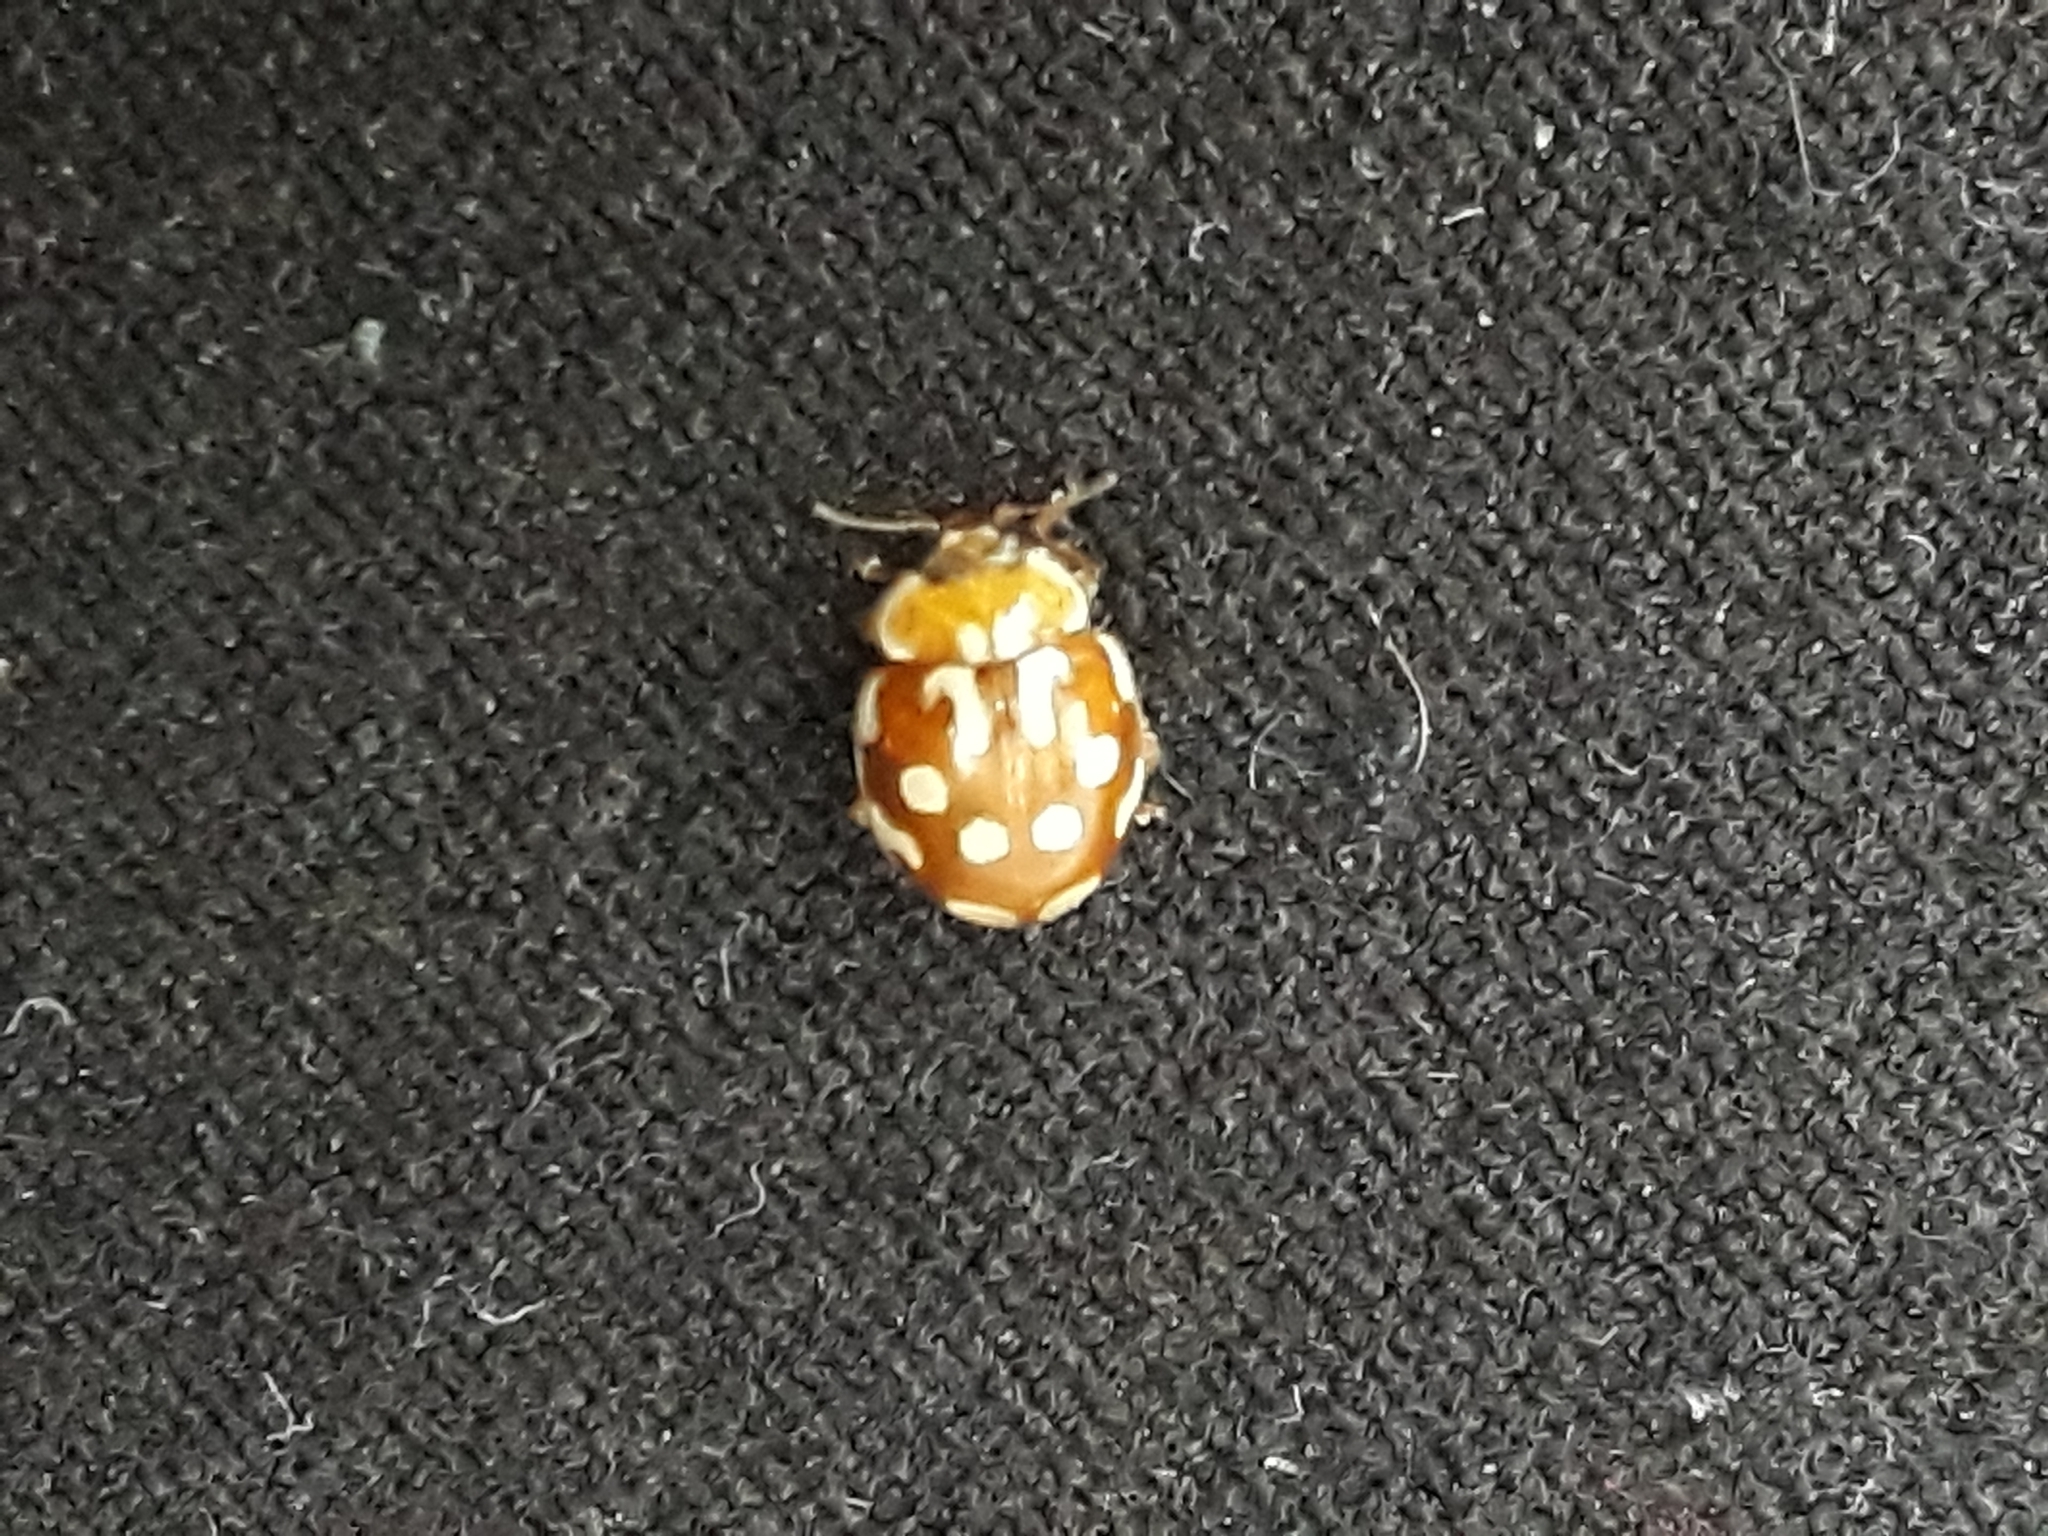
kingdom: Animalia
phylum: Arthropoda
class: Insecta
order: Coleoptera
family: Coccinellidae
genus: Myrrha
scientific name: Myrrha octodecimguttata
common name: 18-spot ladybird
